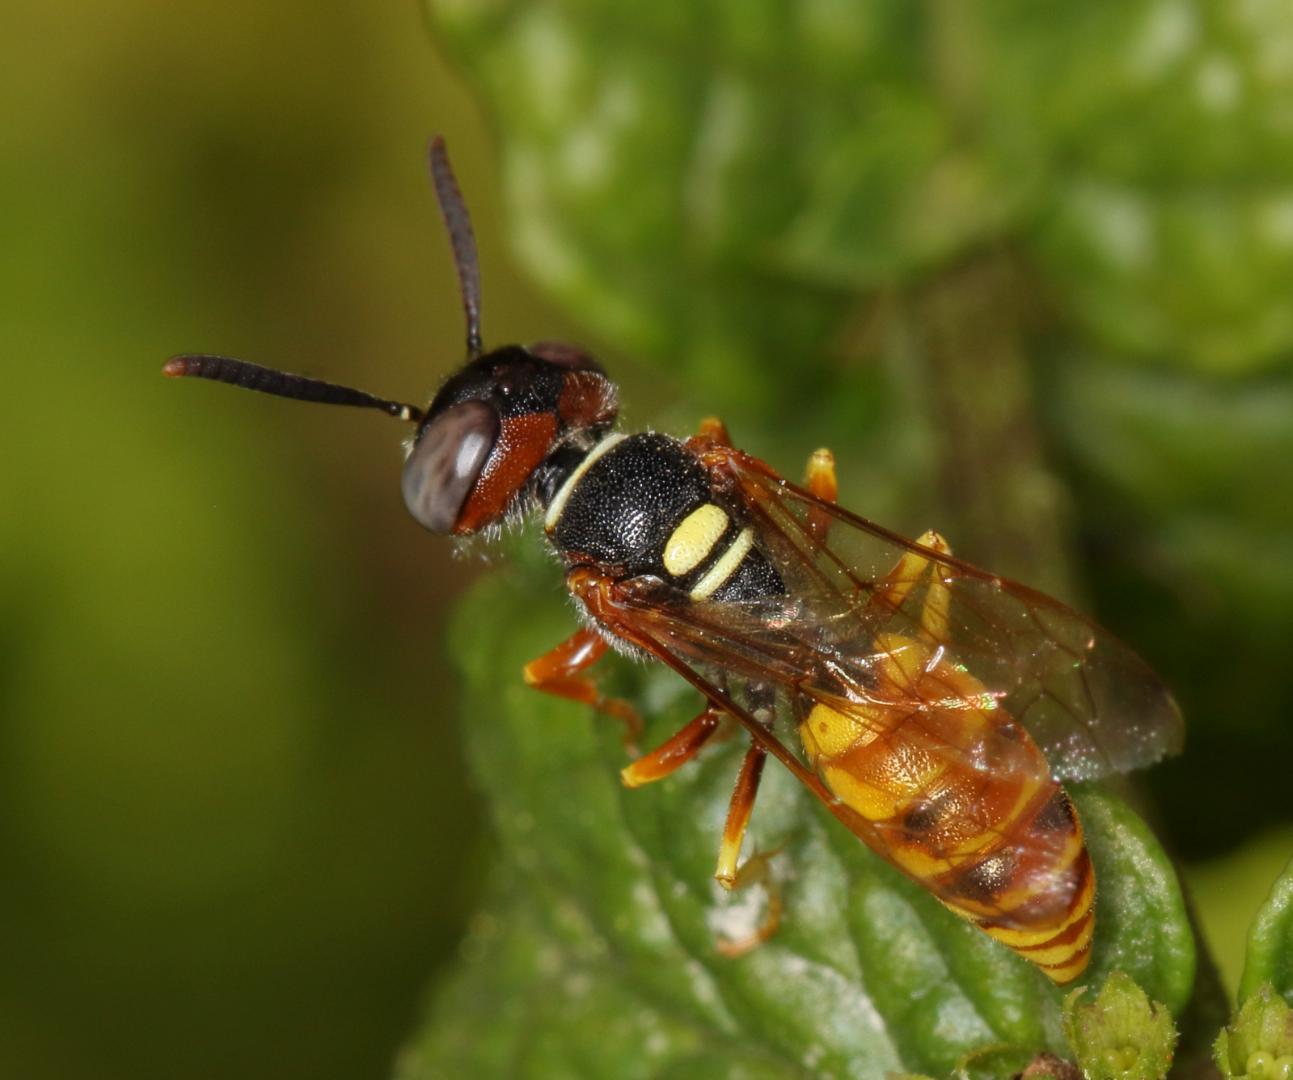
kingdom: Animalia
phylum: Arthropoda
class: Insecta
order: Hymenoptera
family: Crabronidae
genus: Philanthus
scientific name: Philanthus triangulum
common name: Bee wolf
